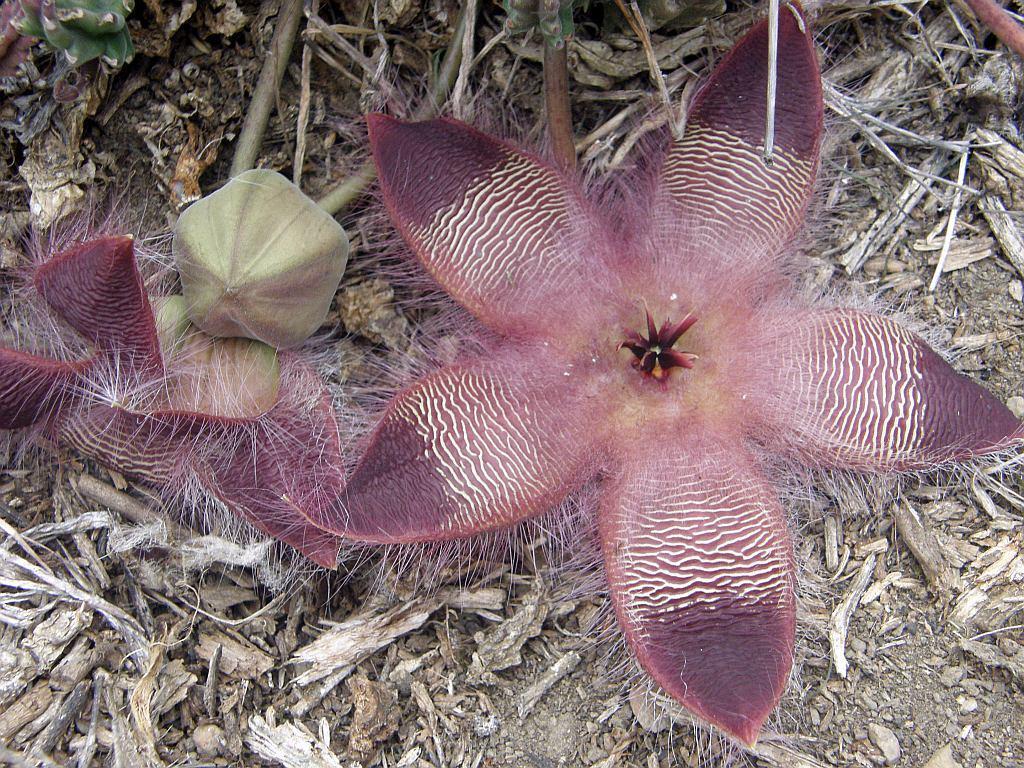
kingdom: Plantae
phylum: Tracheophyta
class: Magnoliopsida
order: Gentianales
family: Apocynaceae
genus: Ceropegia
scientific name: Ceropegia pulvinata
